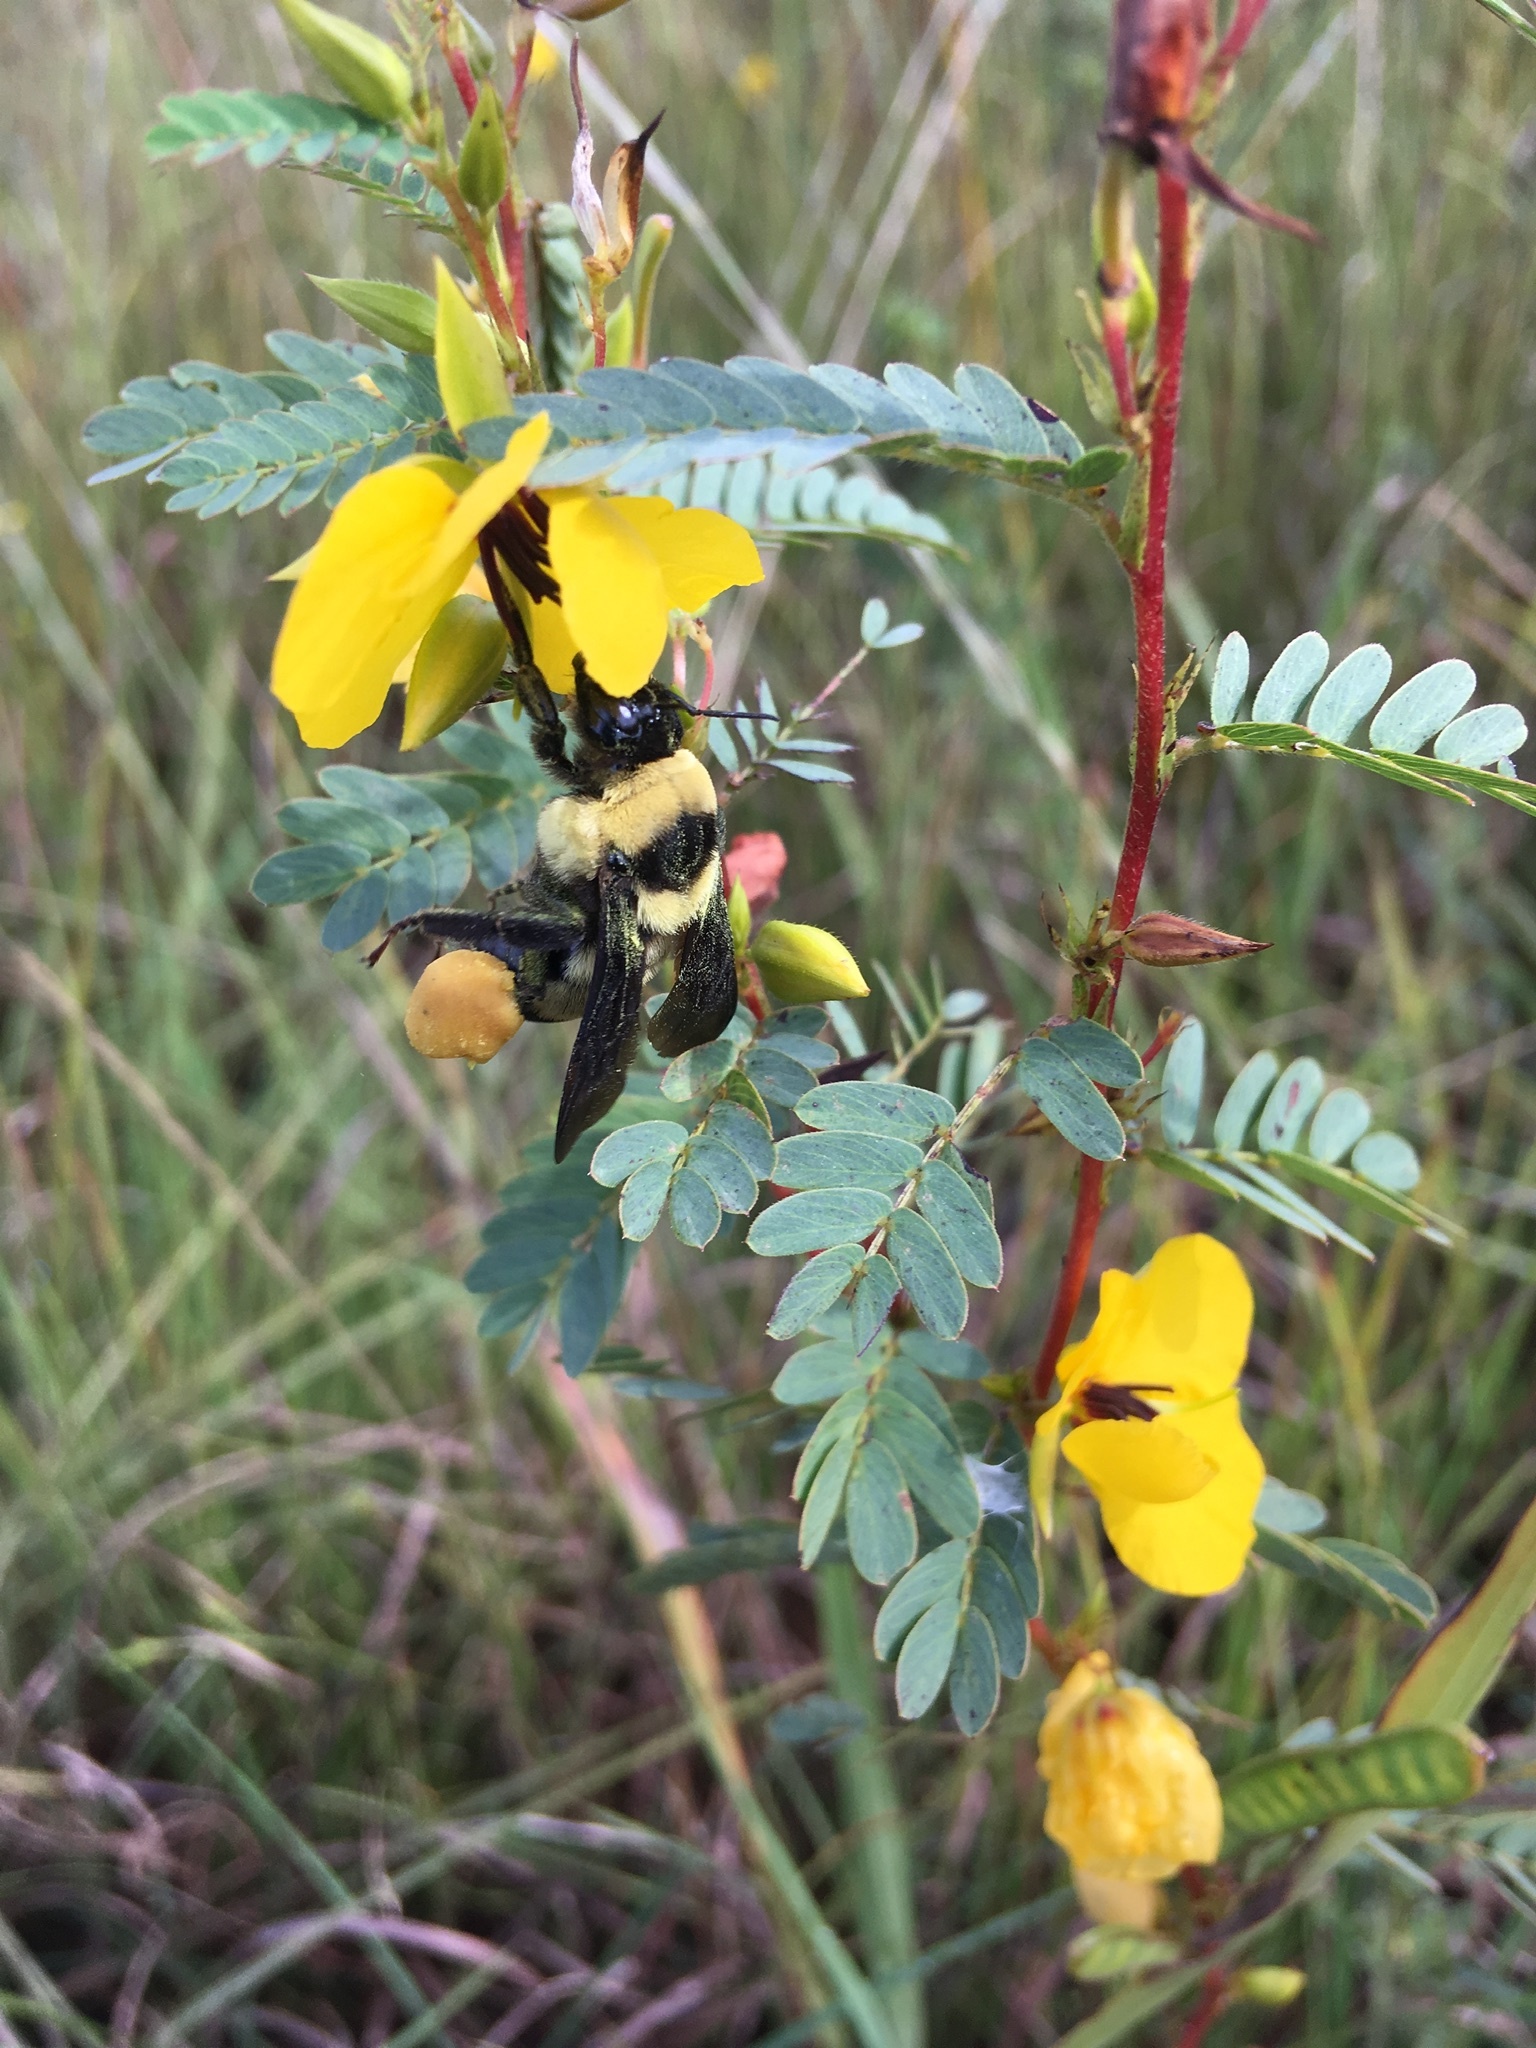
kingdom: Animalia
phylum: Arthropoda
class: Insecta
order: Hymenoptera
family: Apidae
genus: Bombus
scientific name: Bombus fraternus
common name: Southern plains bumble bee
